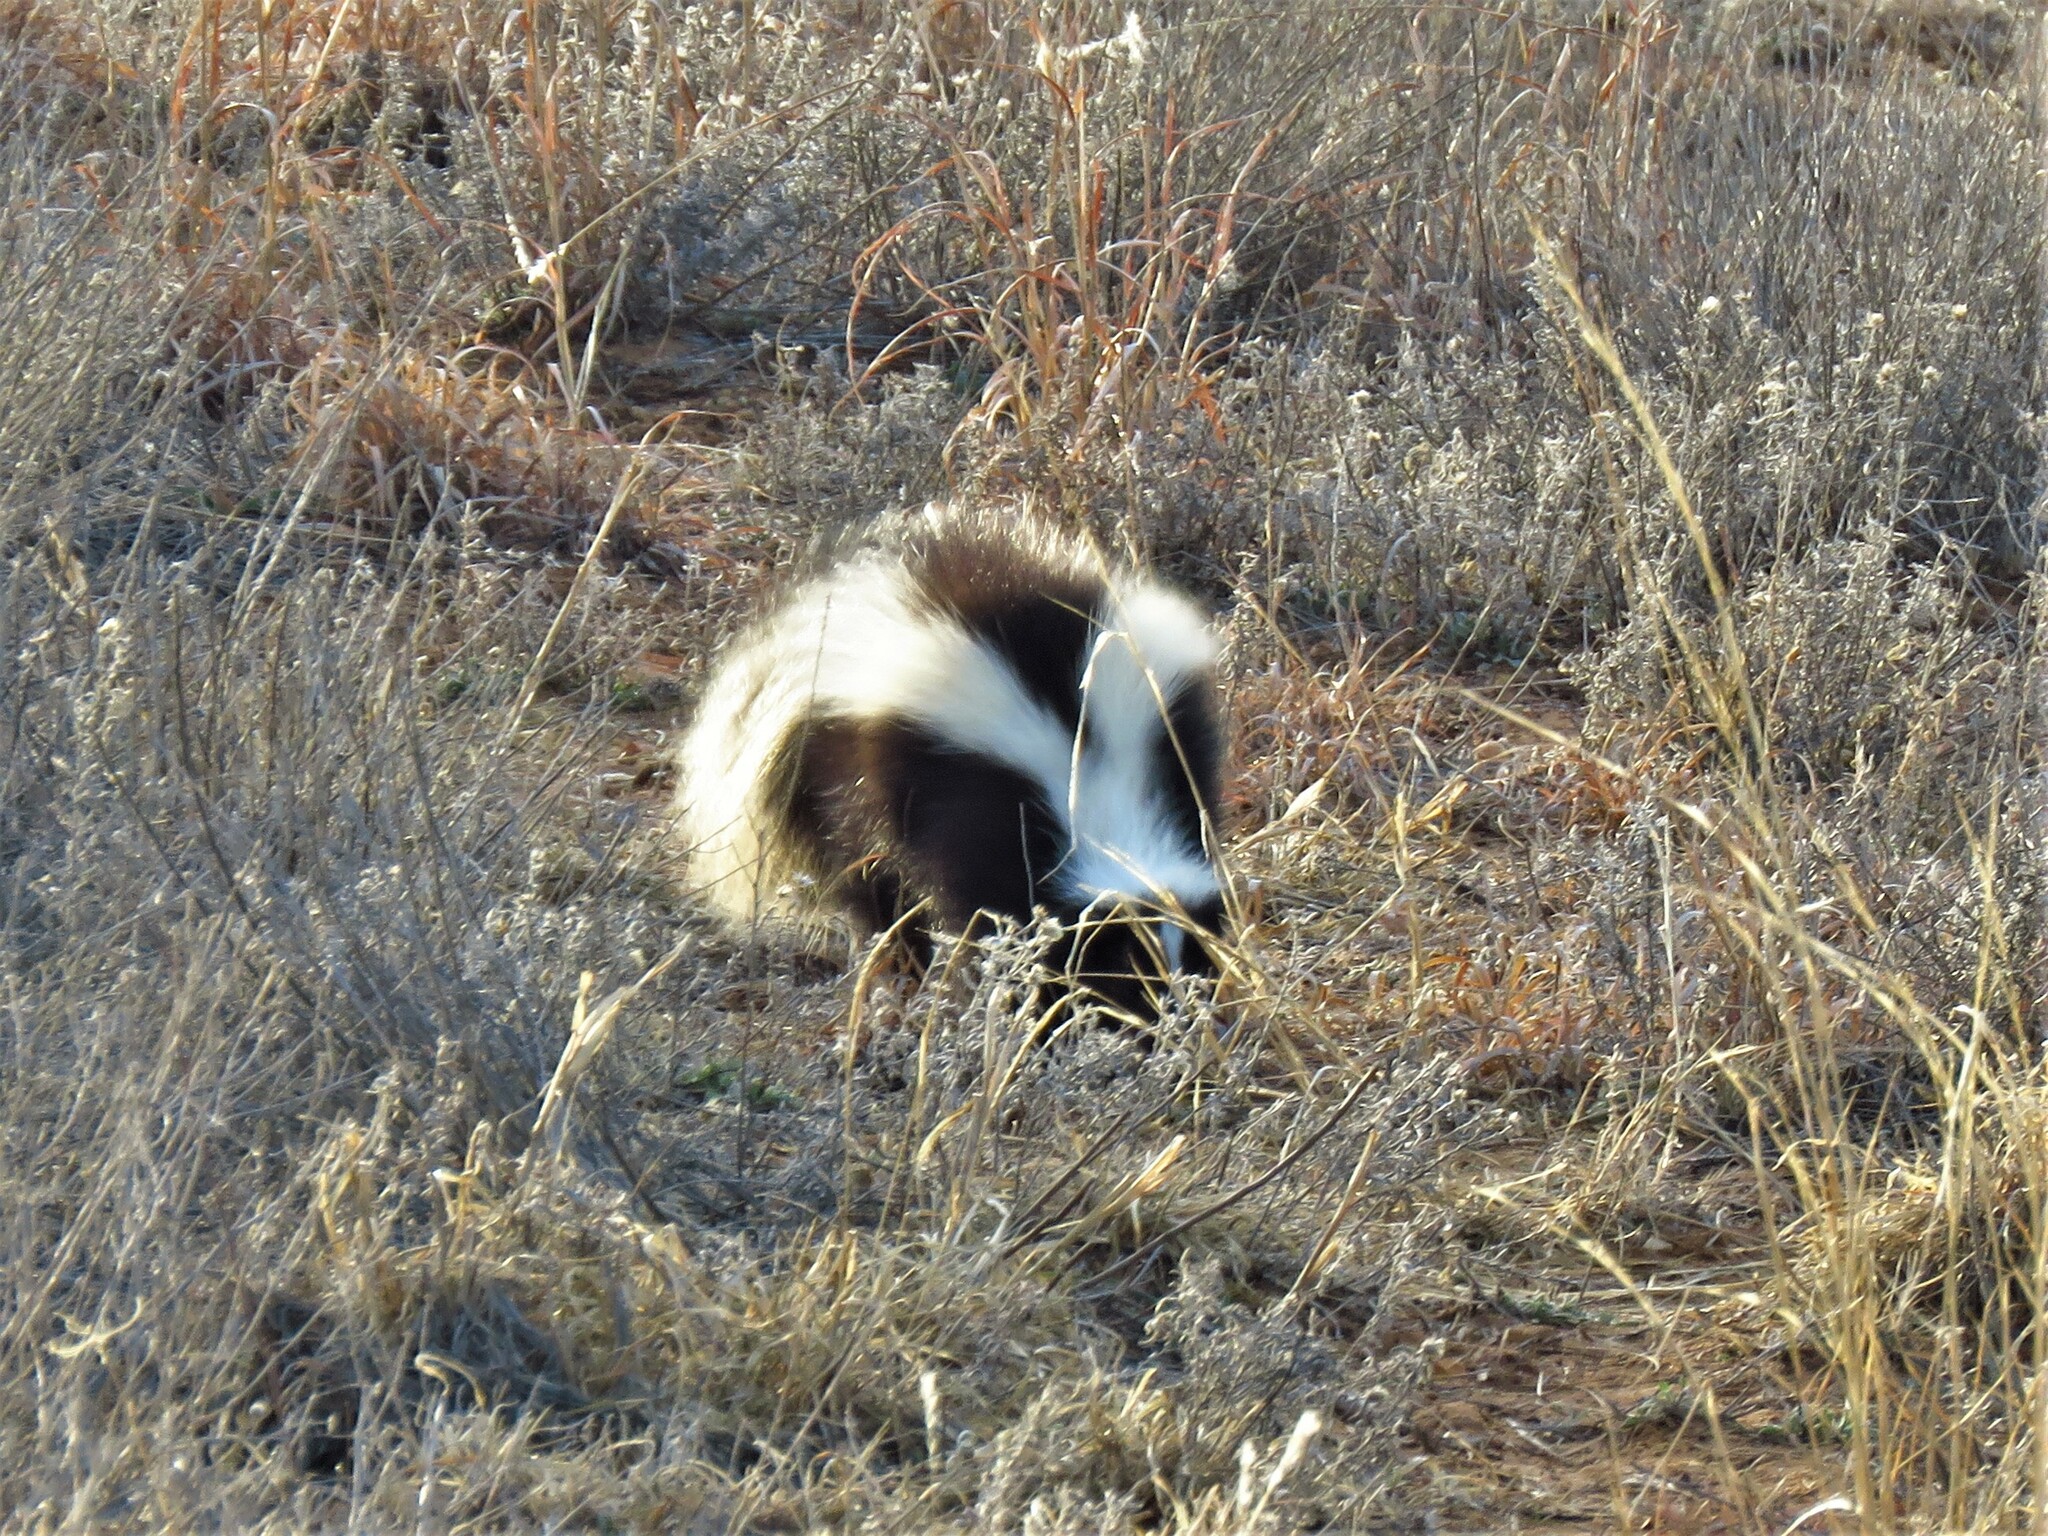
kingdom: Animalia
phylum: Chordata
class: Mammalia
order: Carnivora
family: Mephitidae
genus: Mephitis
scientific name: Mephitis mephitis
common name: Striped skunk
